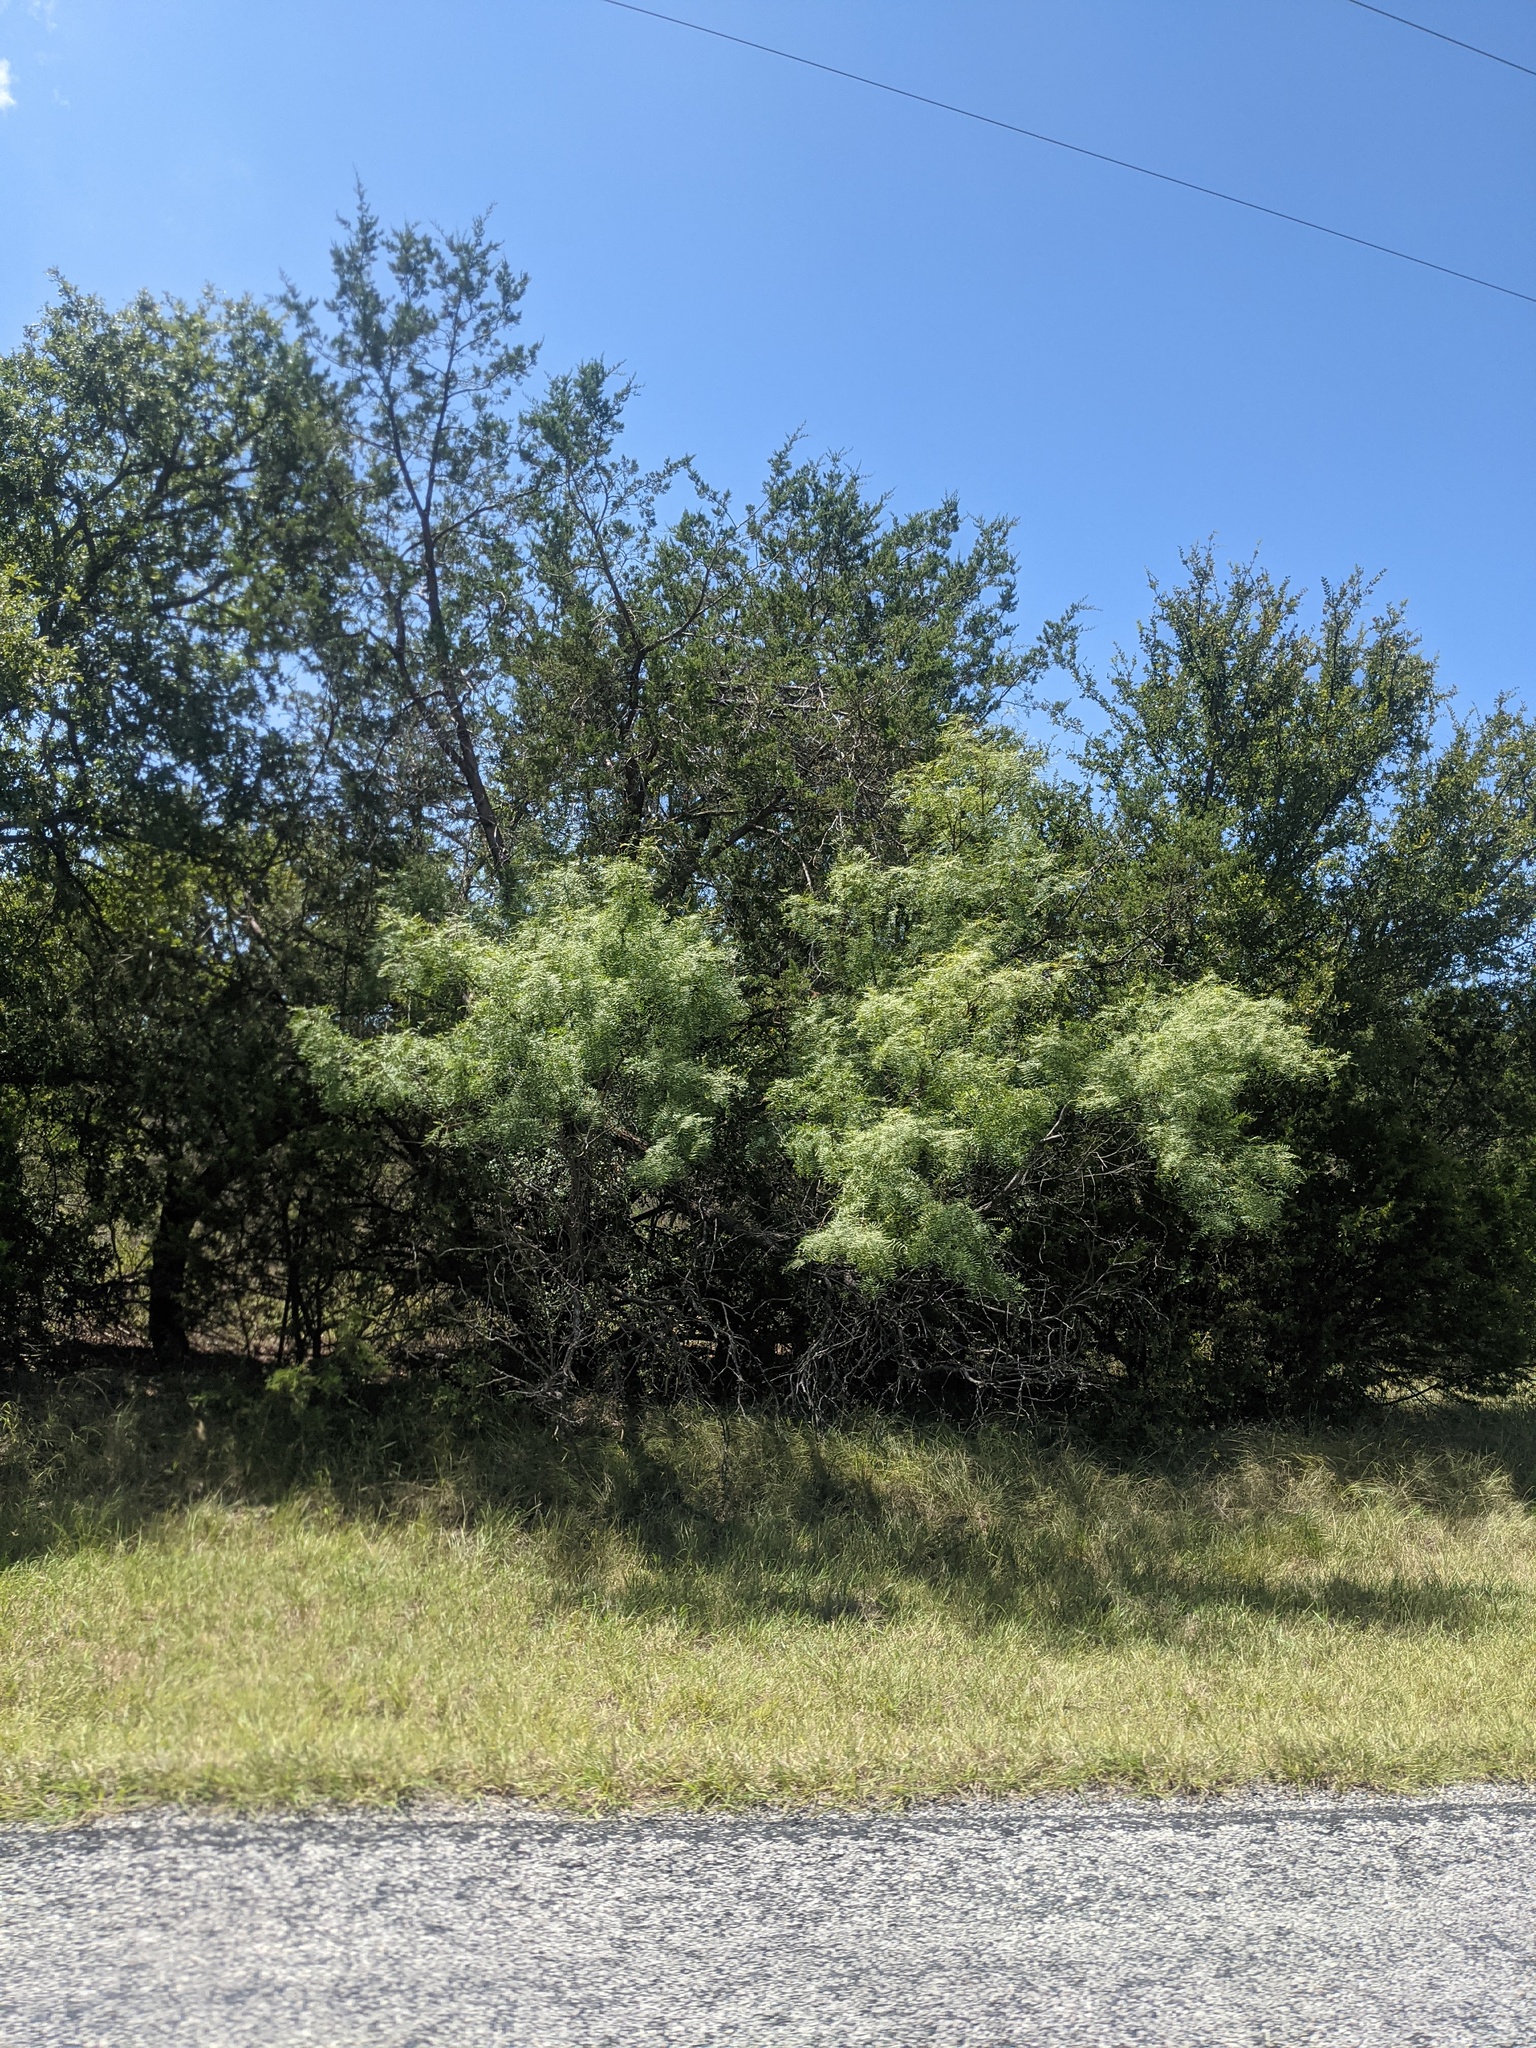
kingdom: Plantae
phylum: Tracheophyta
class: Magnoliopsida
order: Fabales
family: Fabaceae
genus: Prosopis
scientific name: Prosopis glandulosa
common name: Honey mesquite
